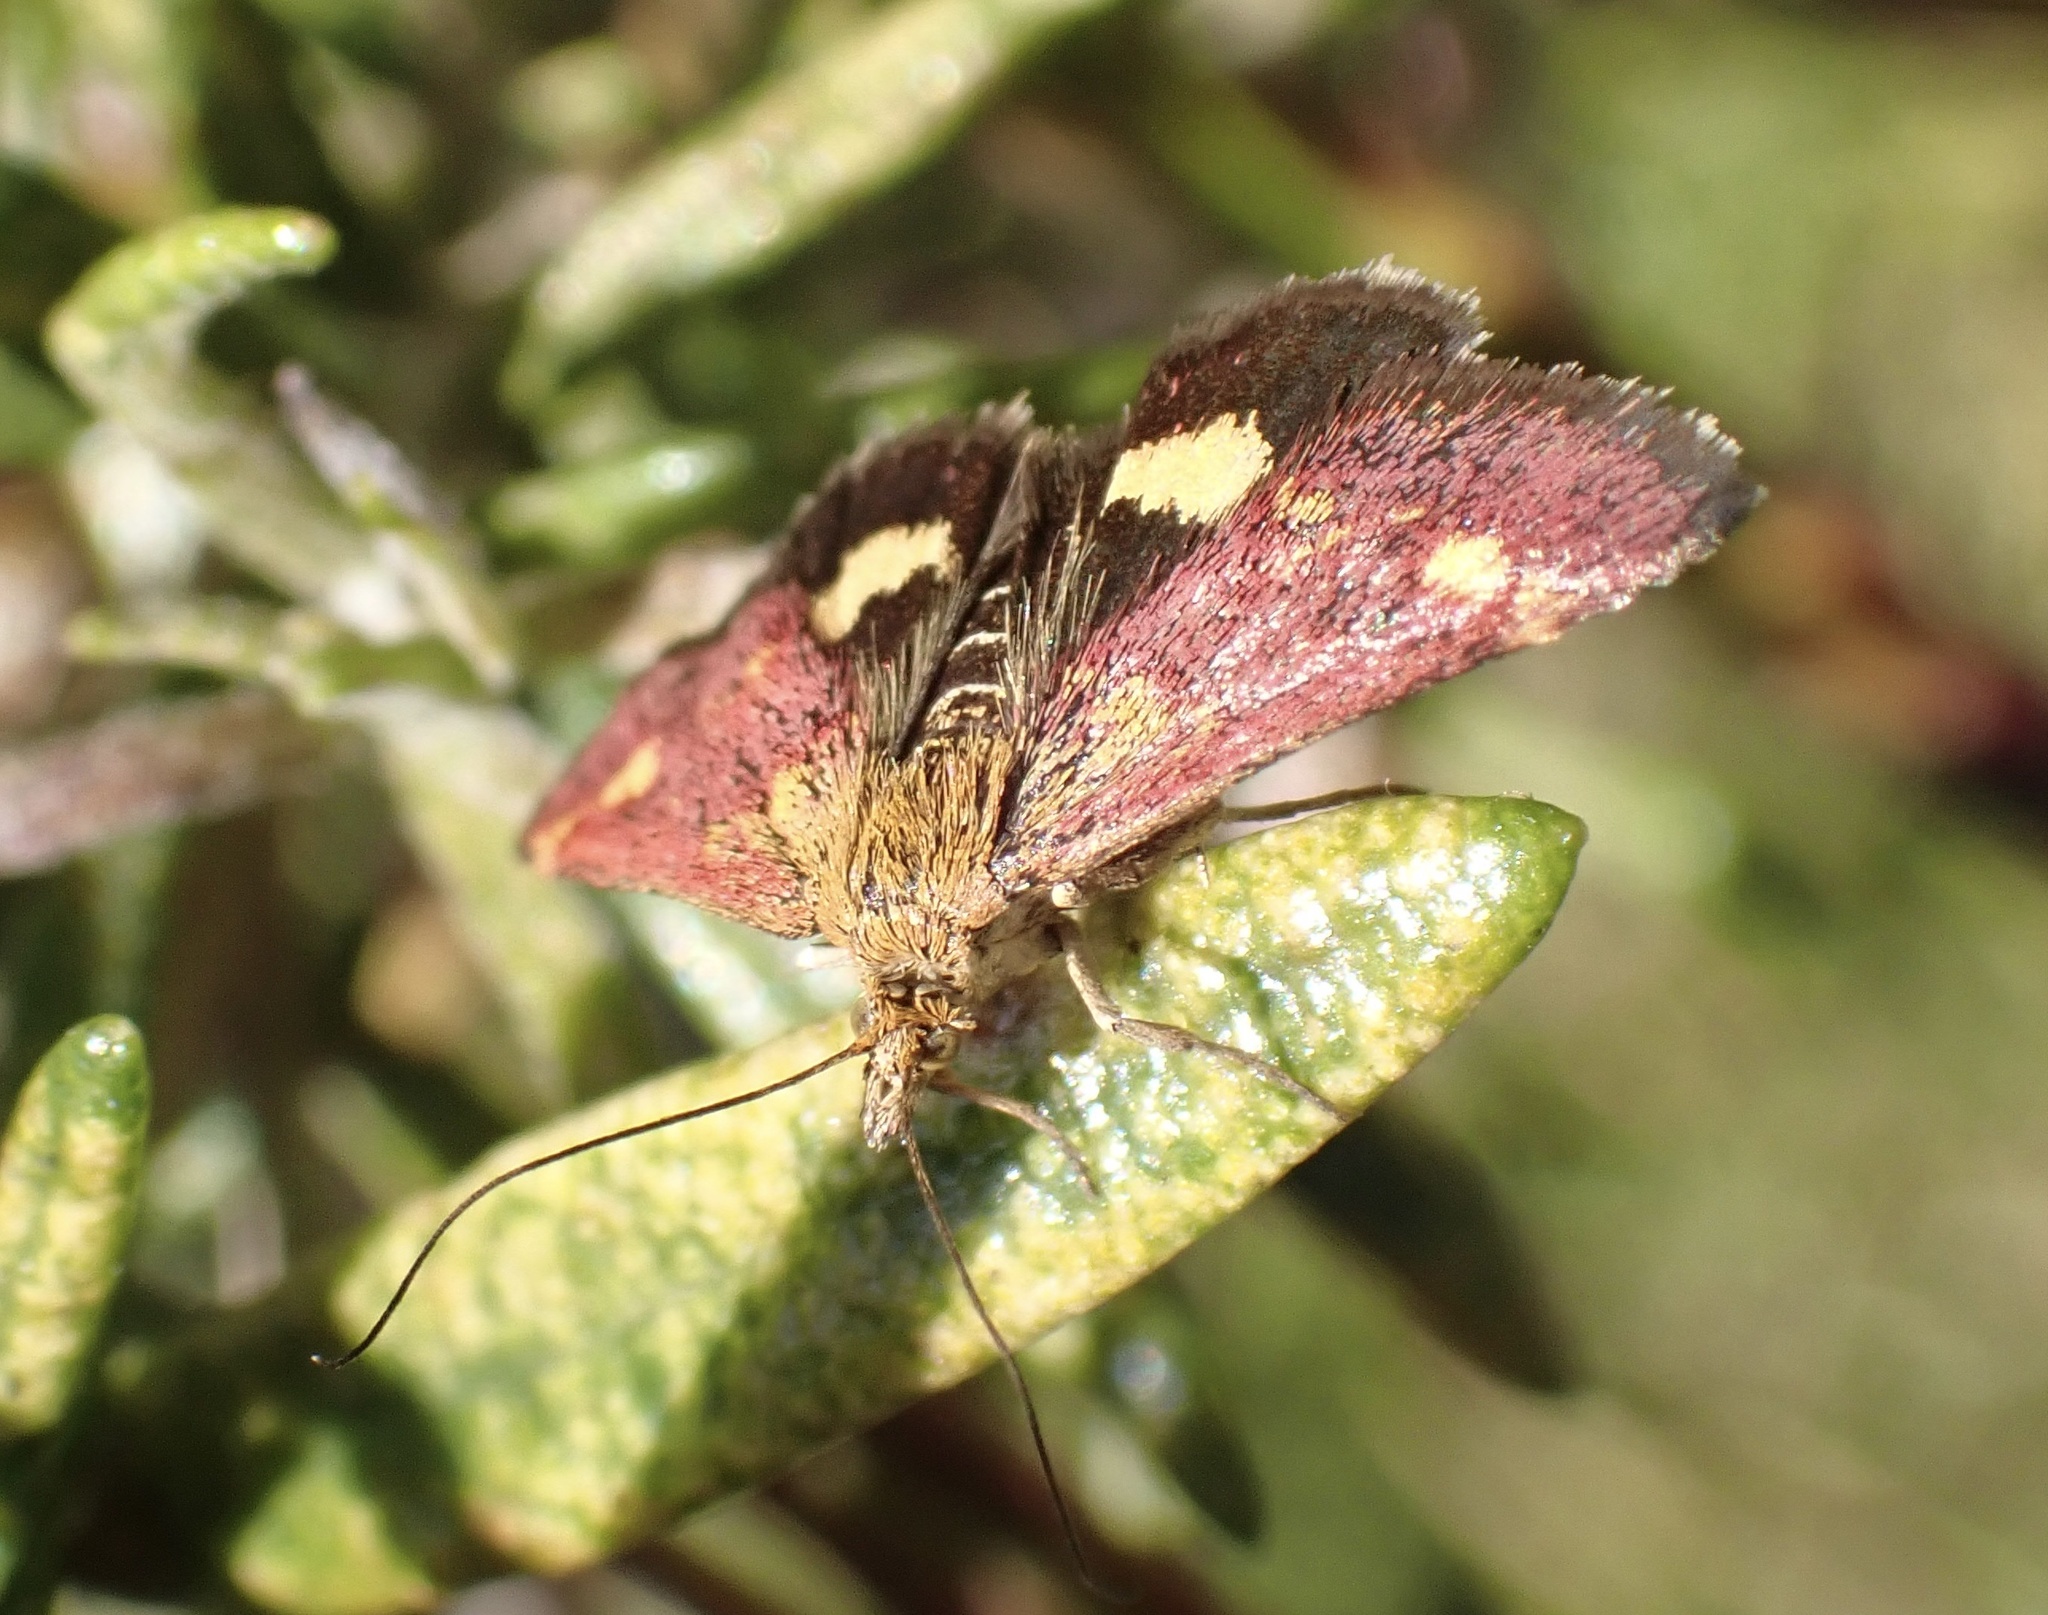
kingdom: Animalia
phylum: Arthropoda
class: Insecta
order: Lepidoptera
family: Crambidae
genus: Pyrausta
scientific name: Pyrausta aurata
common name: Small purple & gold
